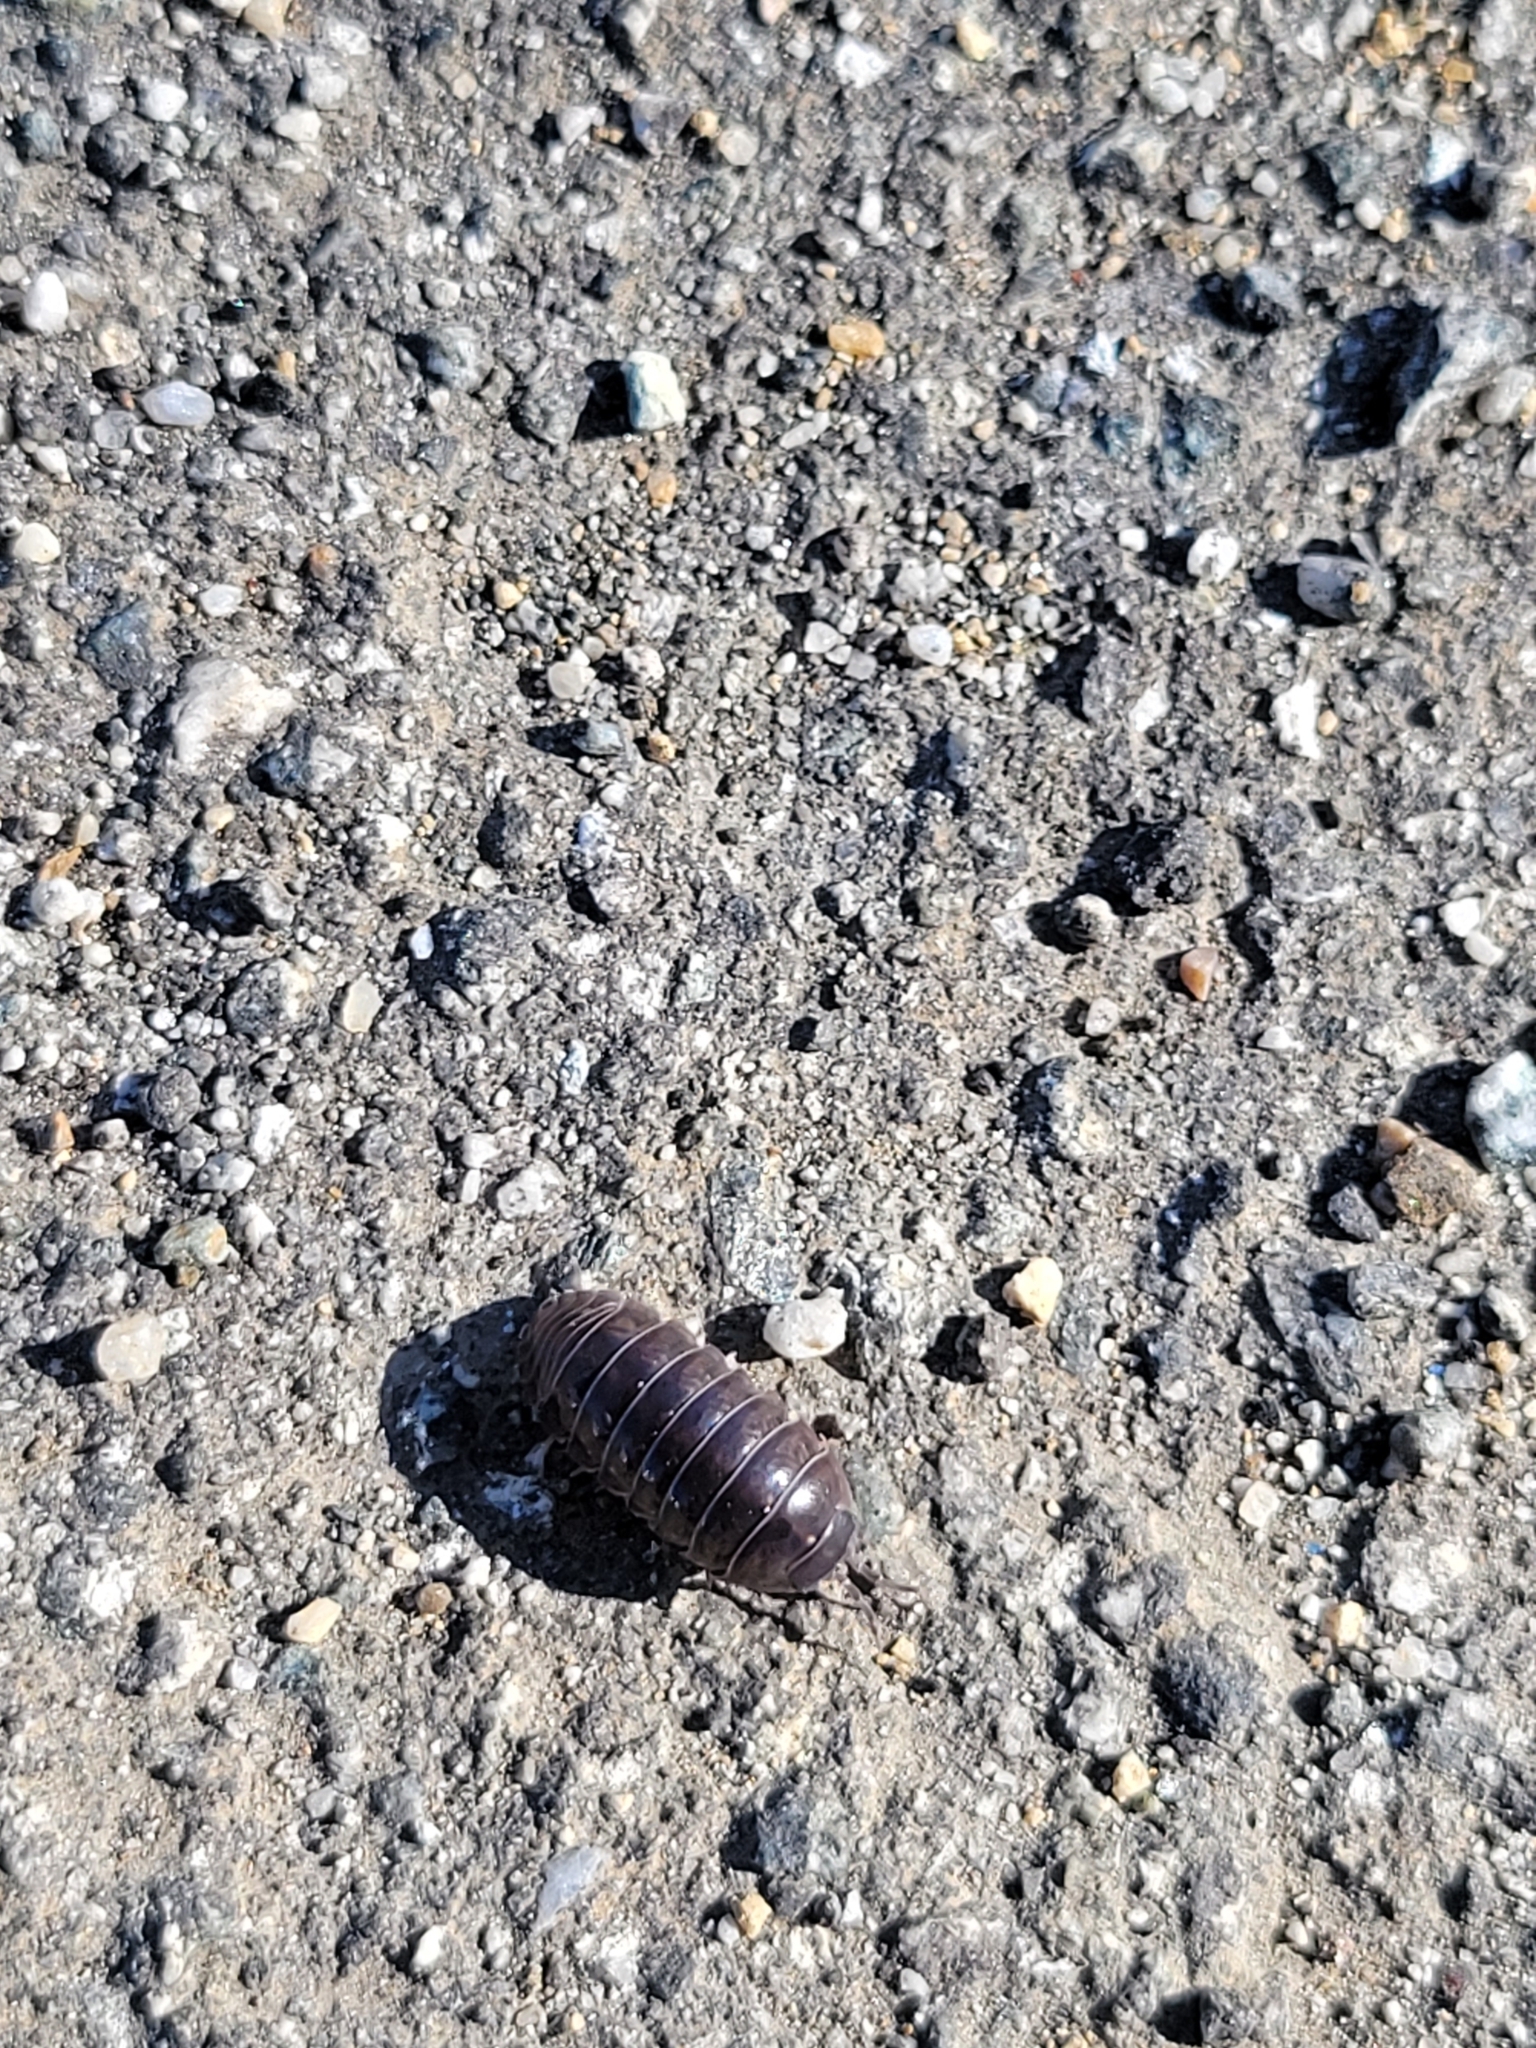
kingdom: Animalia
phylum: Arthropoda
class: Malacostraca
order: Isopoda
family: Armadillidiidae
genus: Armadillidium
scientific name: Armadillidium vulgare
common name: Common pill woodlouse
